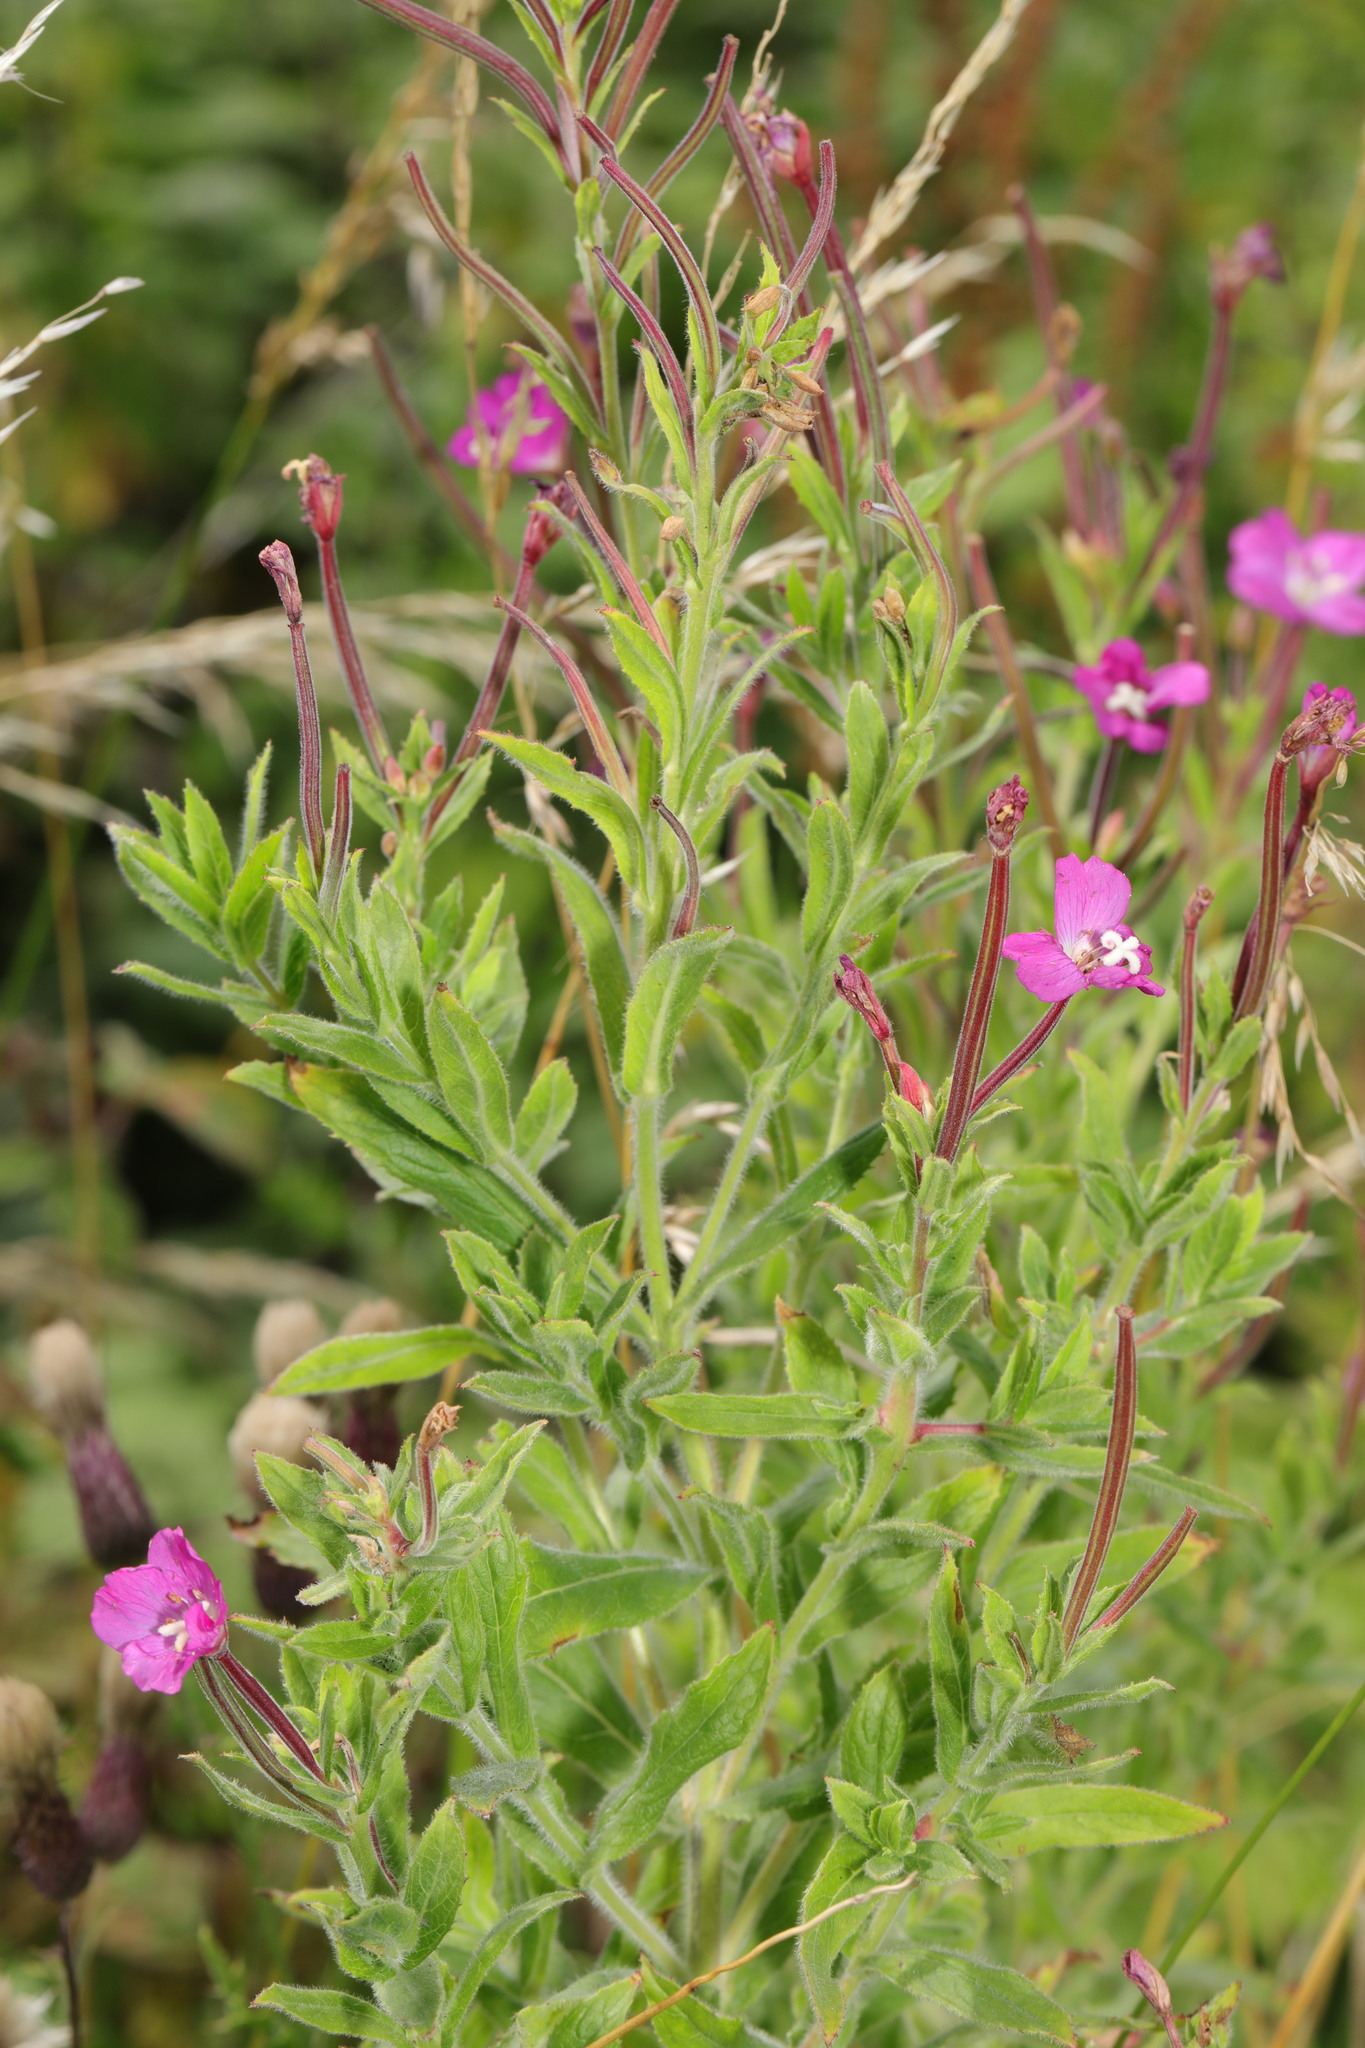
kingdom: Plantae
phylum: Tracheophyta
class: Magnoliopsida
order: Myrtales
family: Onagraceae
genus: Epilobium
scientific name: Epilobium hirsutum
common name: Great willowherb
